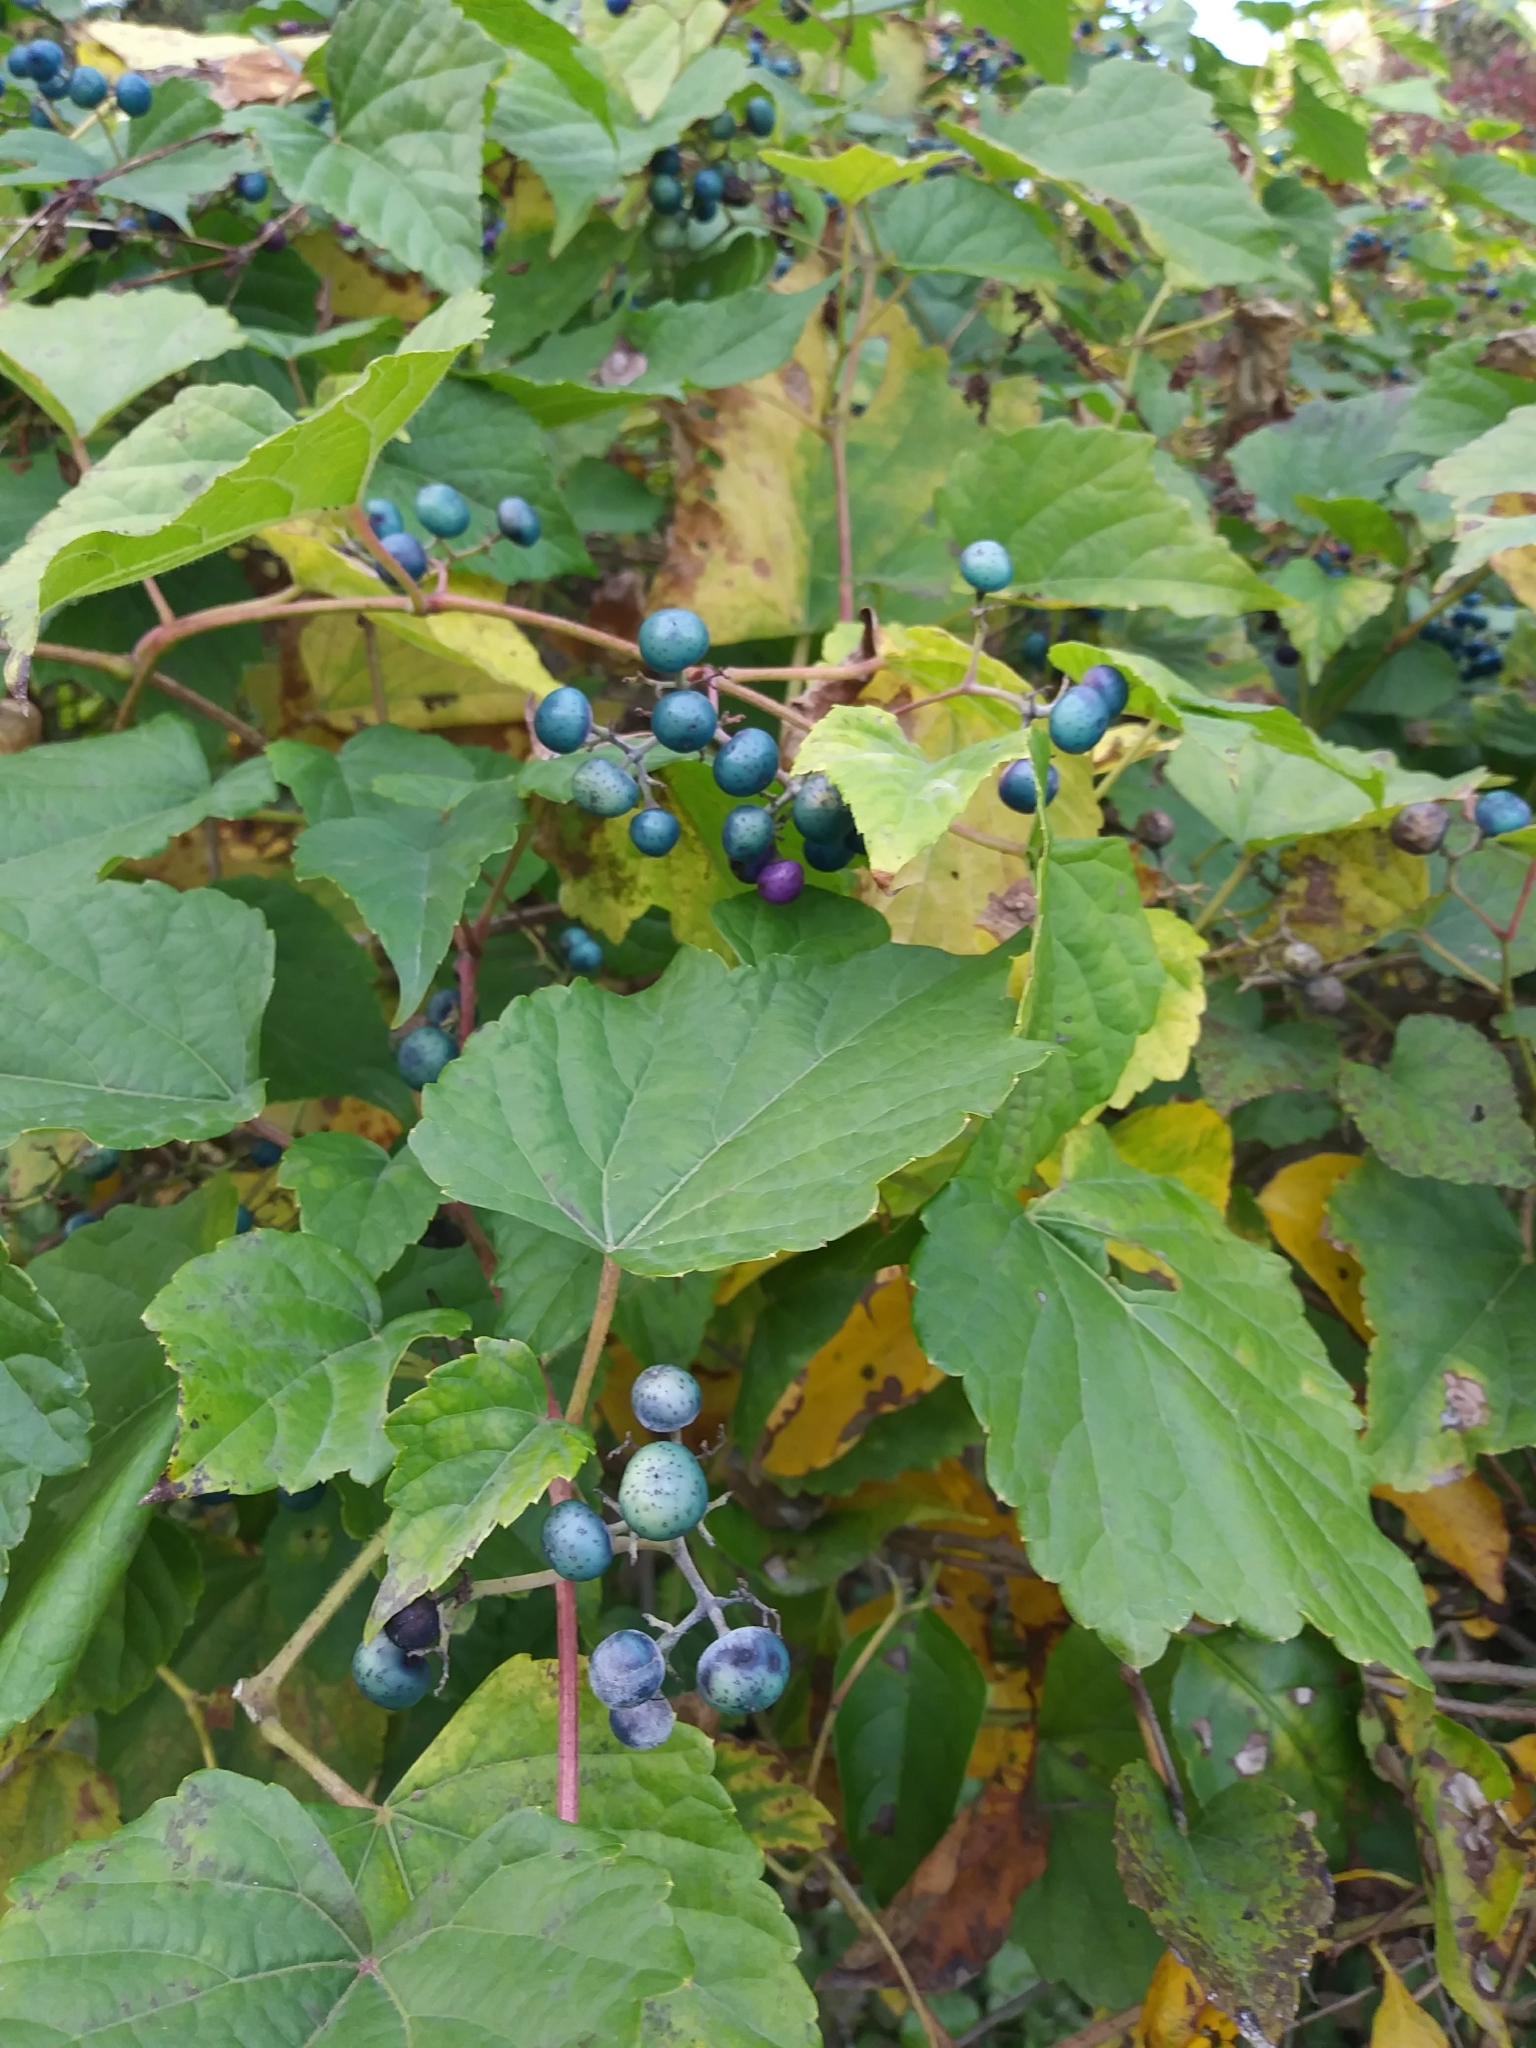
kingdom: Plantae
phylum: Tracheophyta
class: Magnoliopsida
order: Vitales
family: Vitaceae
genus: Ampelopsis
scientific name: Ampelopsis glandulosa
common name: Amur peppervine
